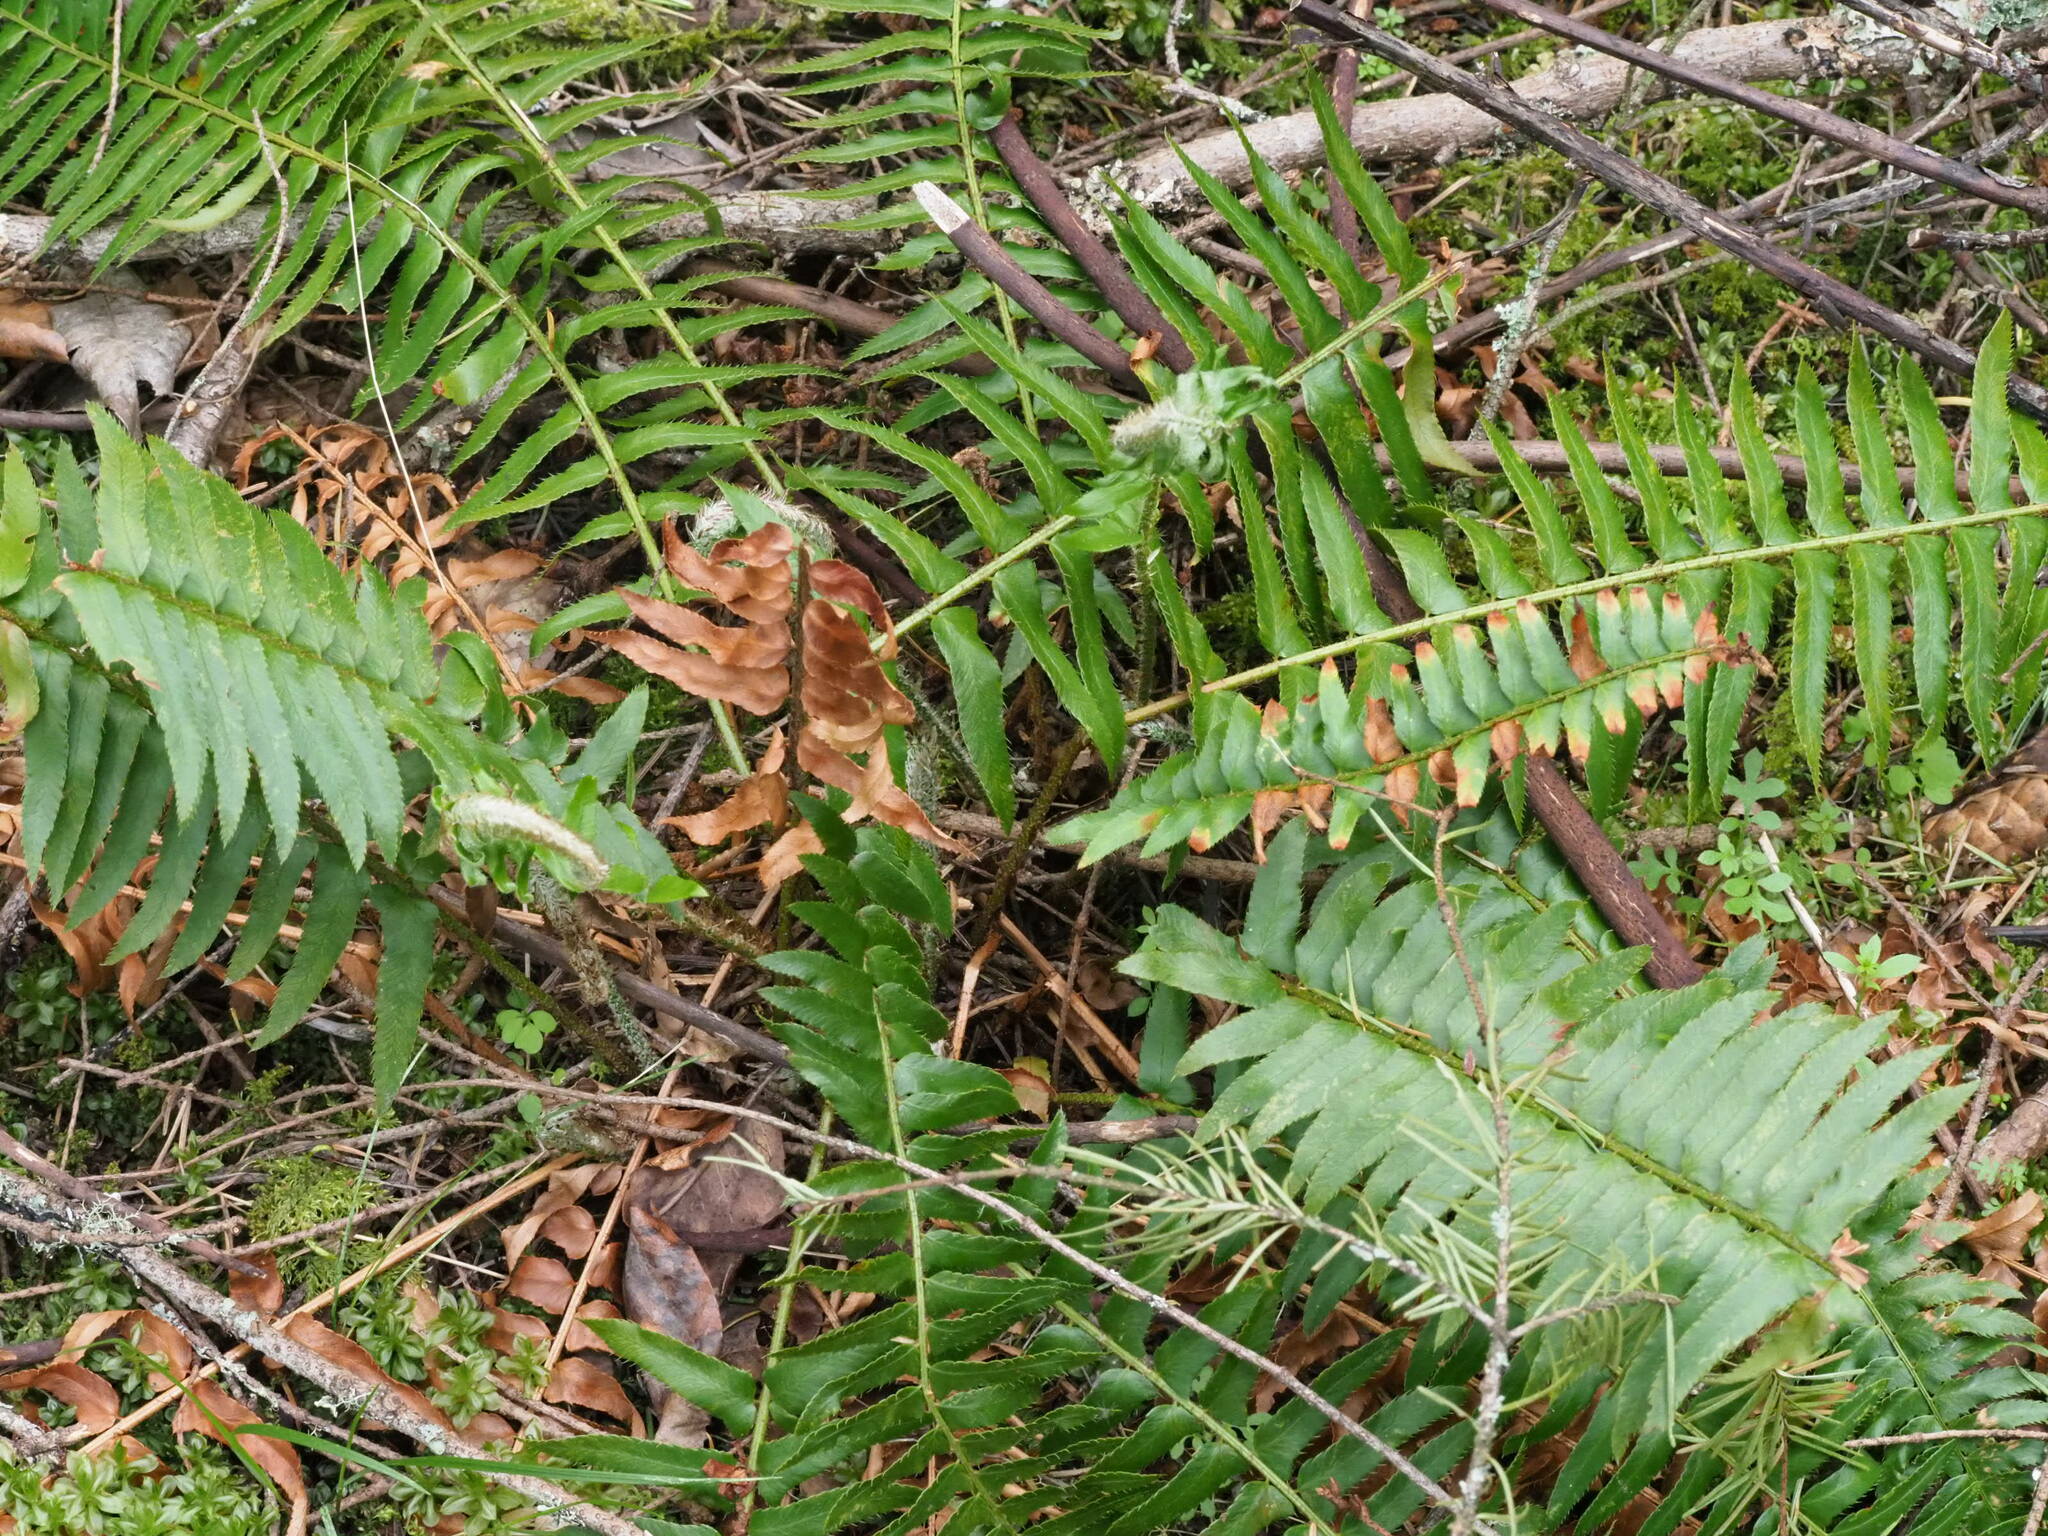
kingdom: Plantae
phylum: Tracheophyta
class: Polypodiopsida
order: Polypodiales
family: Dryopteridaceae
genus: Polystichum
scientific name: Polystichum munitum
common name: Western sword-fern
